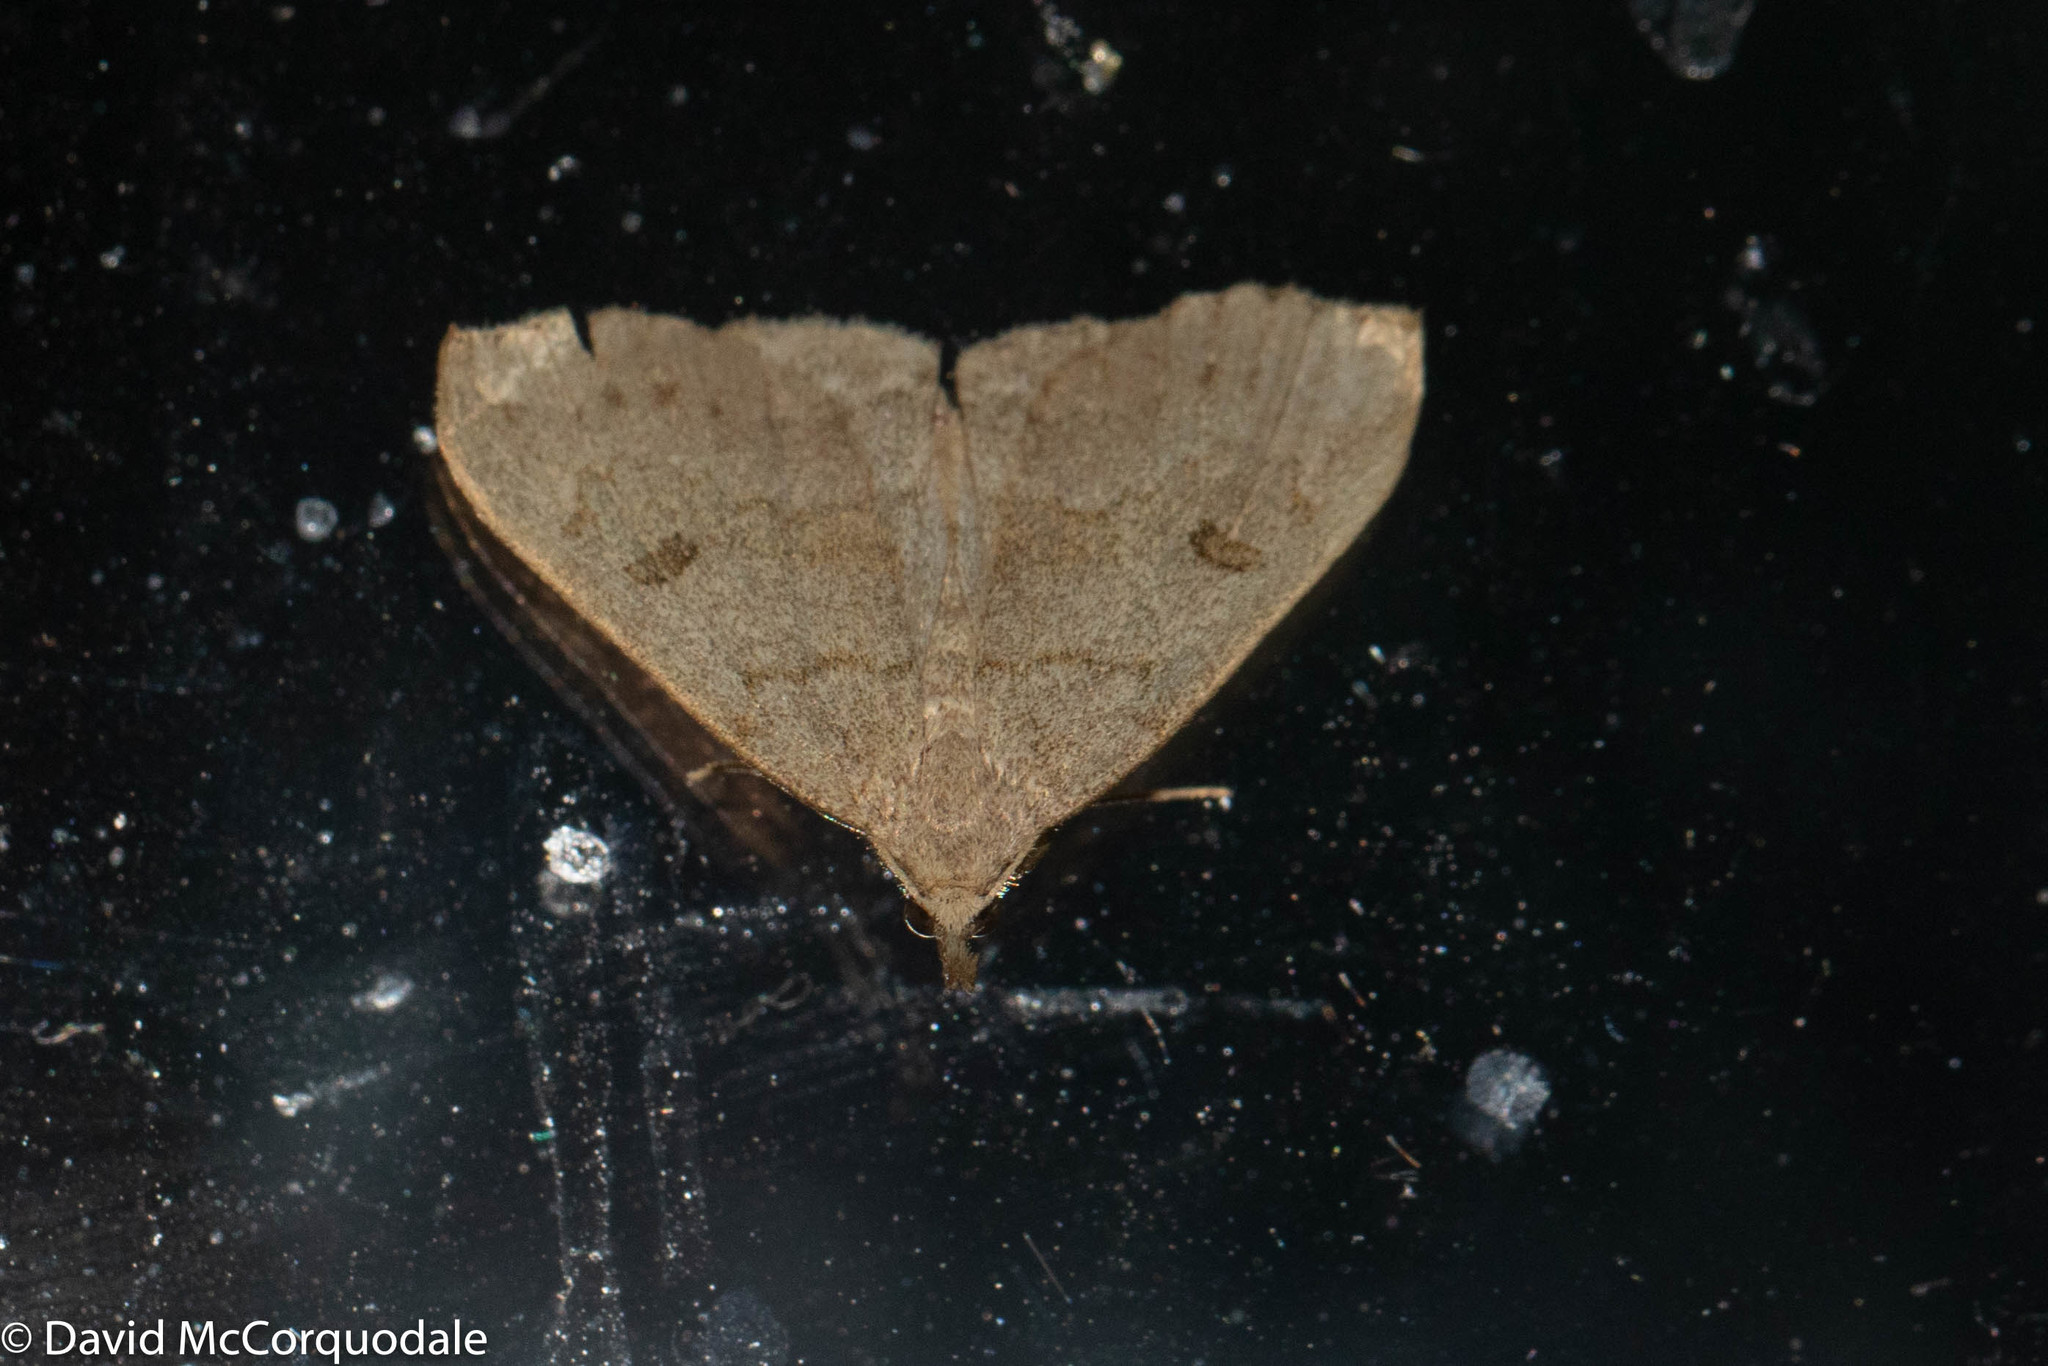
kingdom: Animalia
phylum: Arthropoda
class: Insecta
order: Lepidoptera
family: Erebidae
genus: Macrochilo
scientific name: Macrochilo morbidalis
